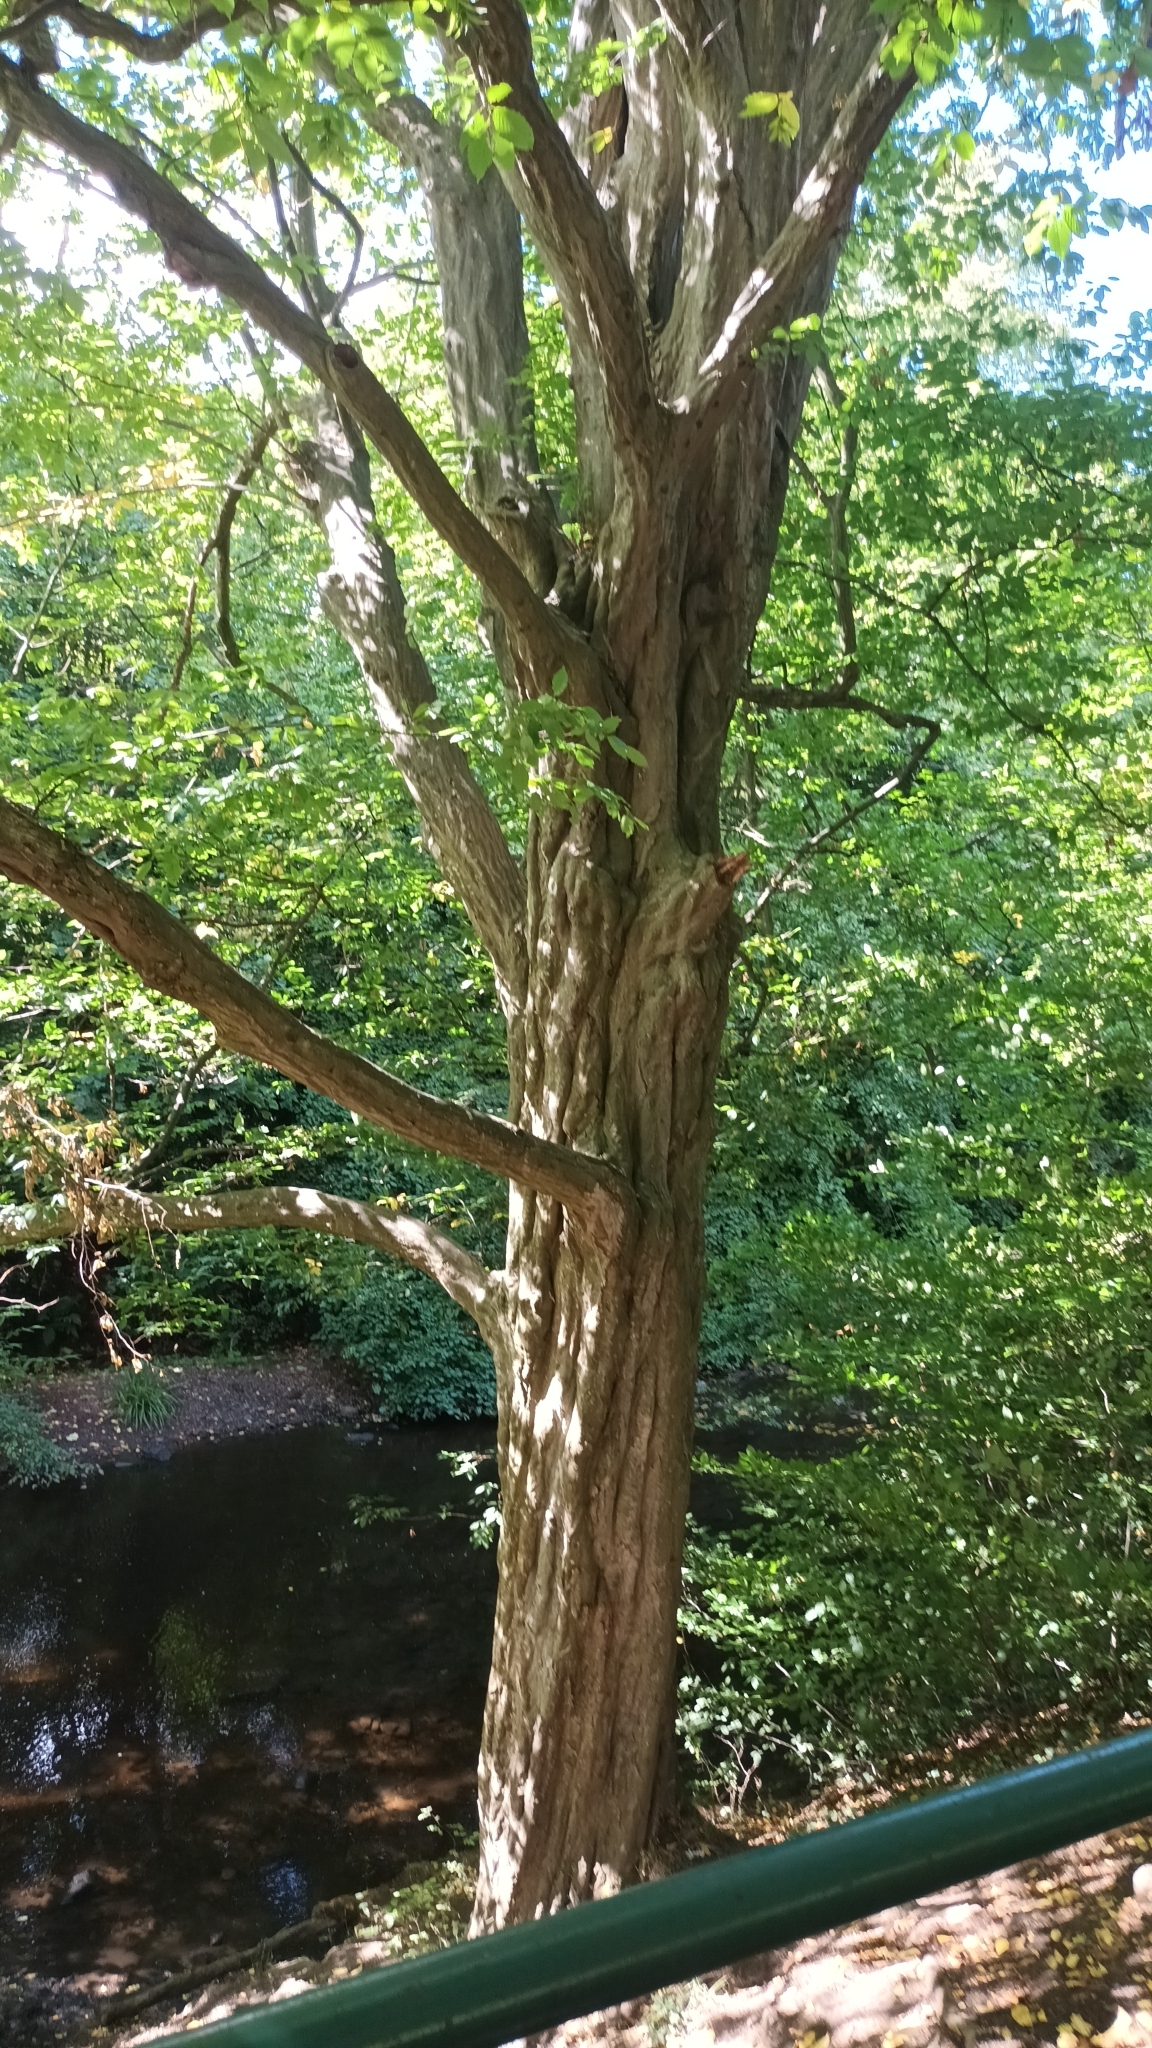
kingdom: Plantae
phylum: Tracheophyta
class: Magnoliopsida
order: Fagales
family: Betulaceae
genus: Carpinus
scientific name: Carpinus betulus
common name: Hornbeam
